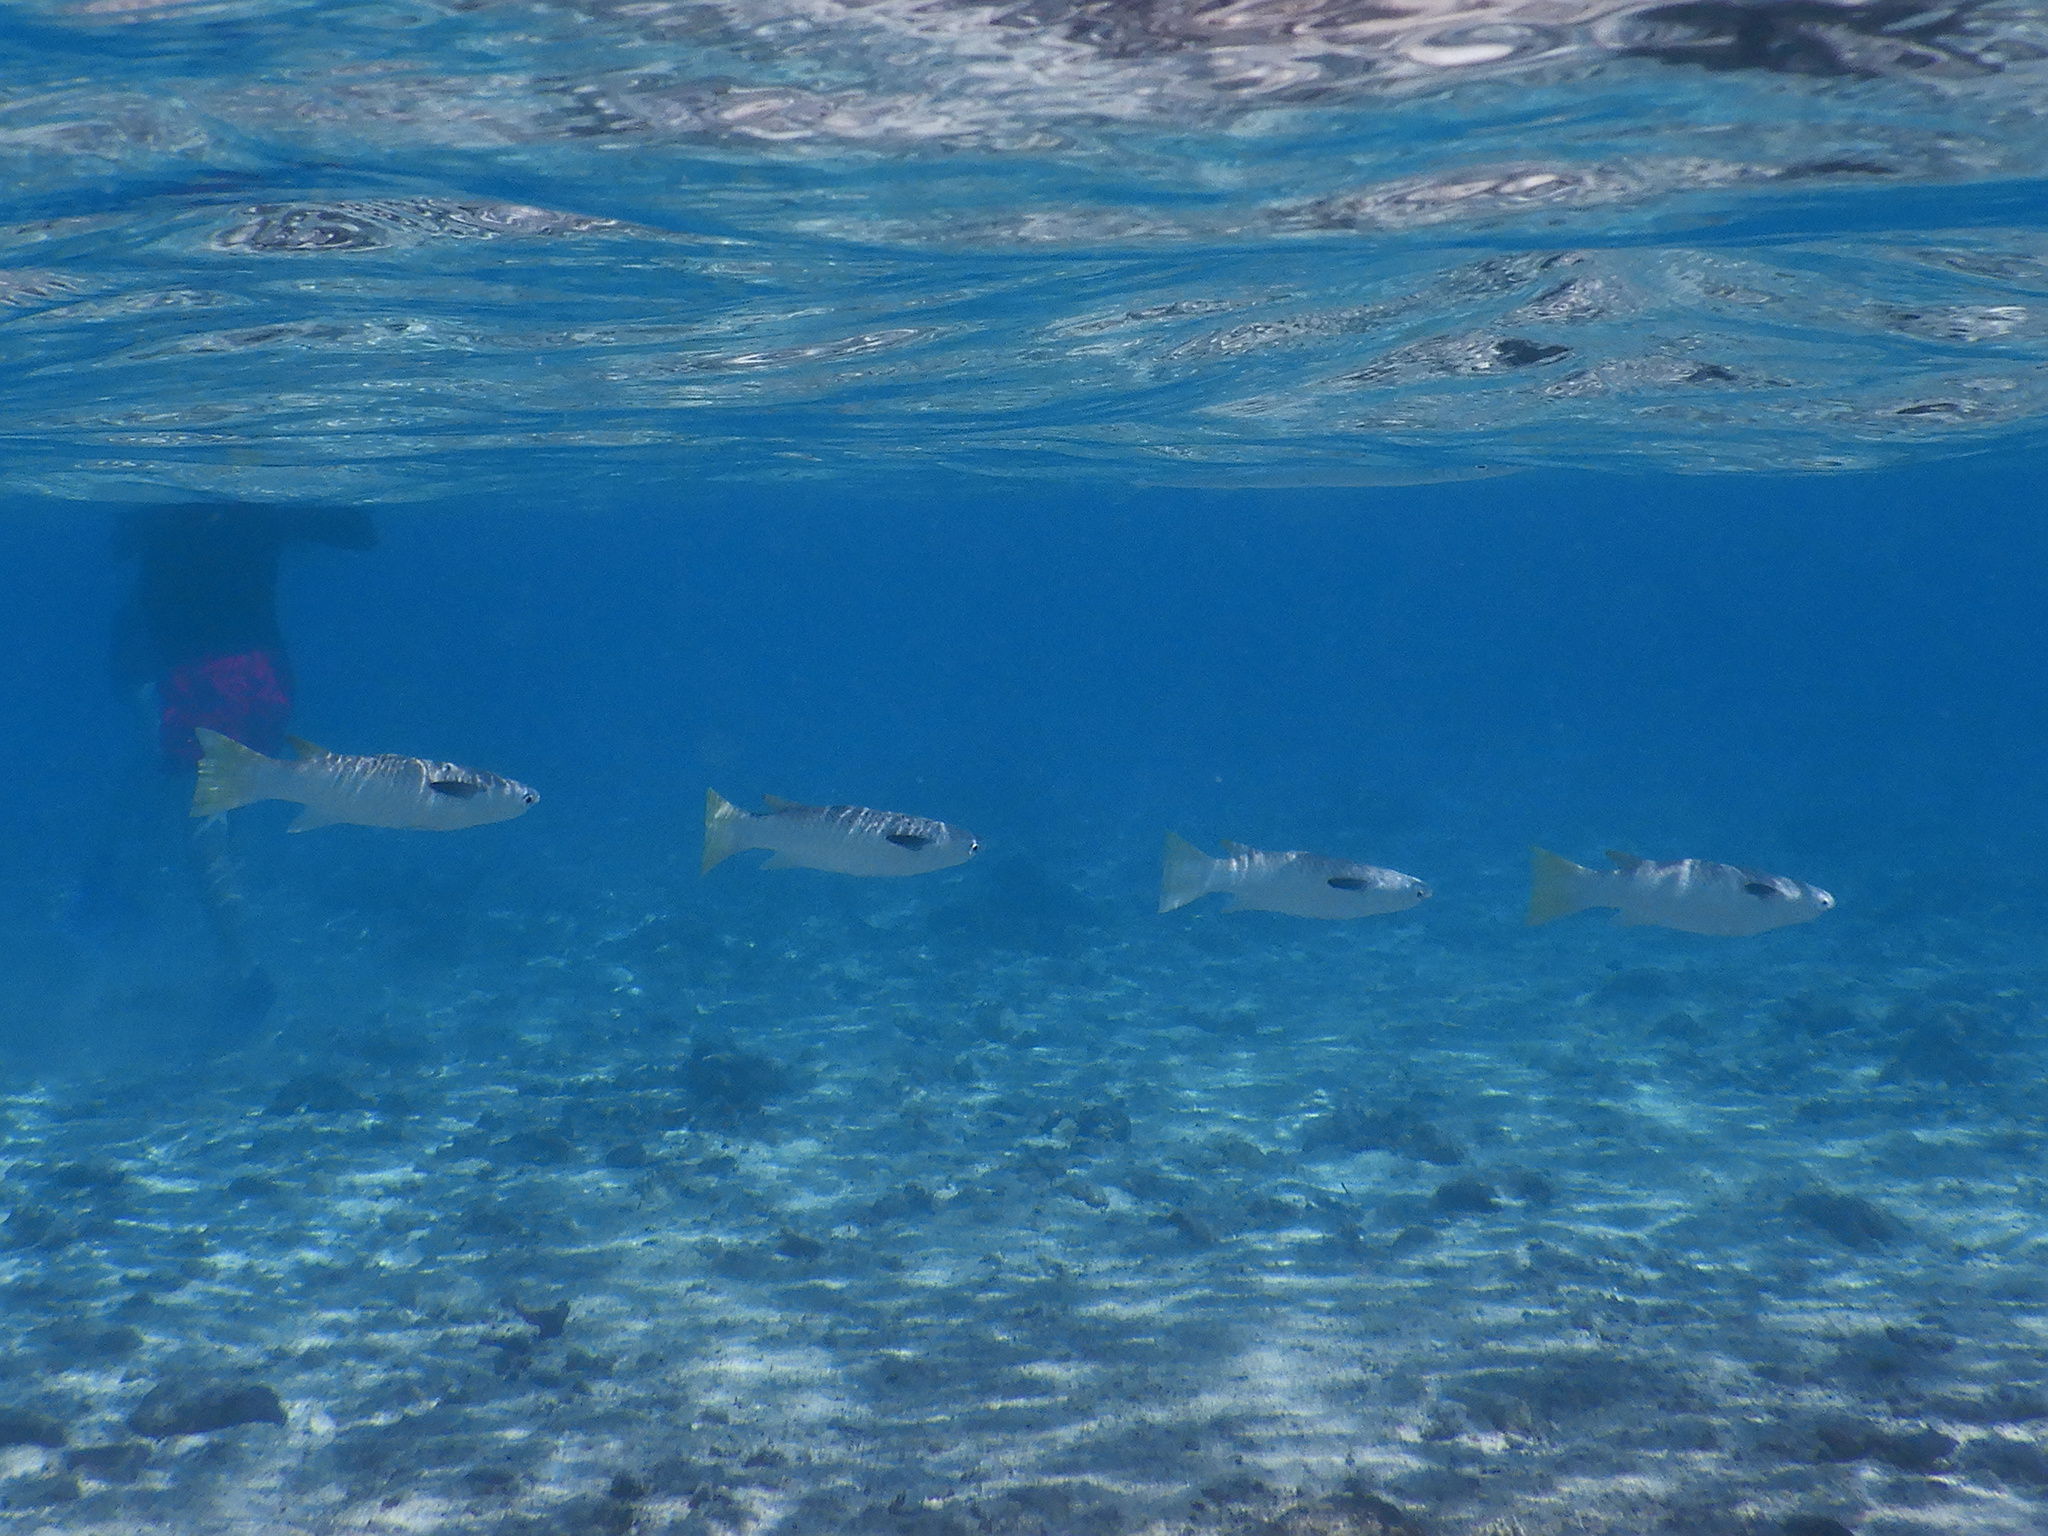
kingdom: Animalia
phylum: Chordata
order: Mugiliformes
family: Mugilidae
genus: Ellochelon
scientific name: Ellochelon vaigiensis
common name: Squaretail mullet
